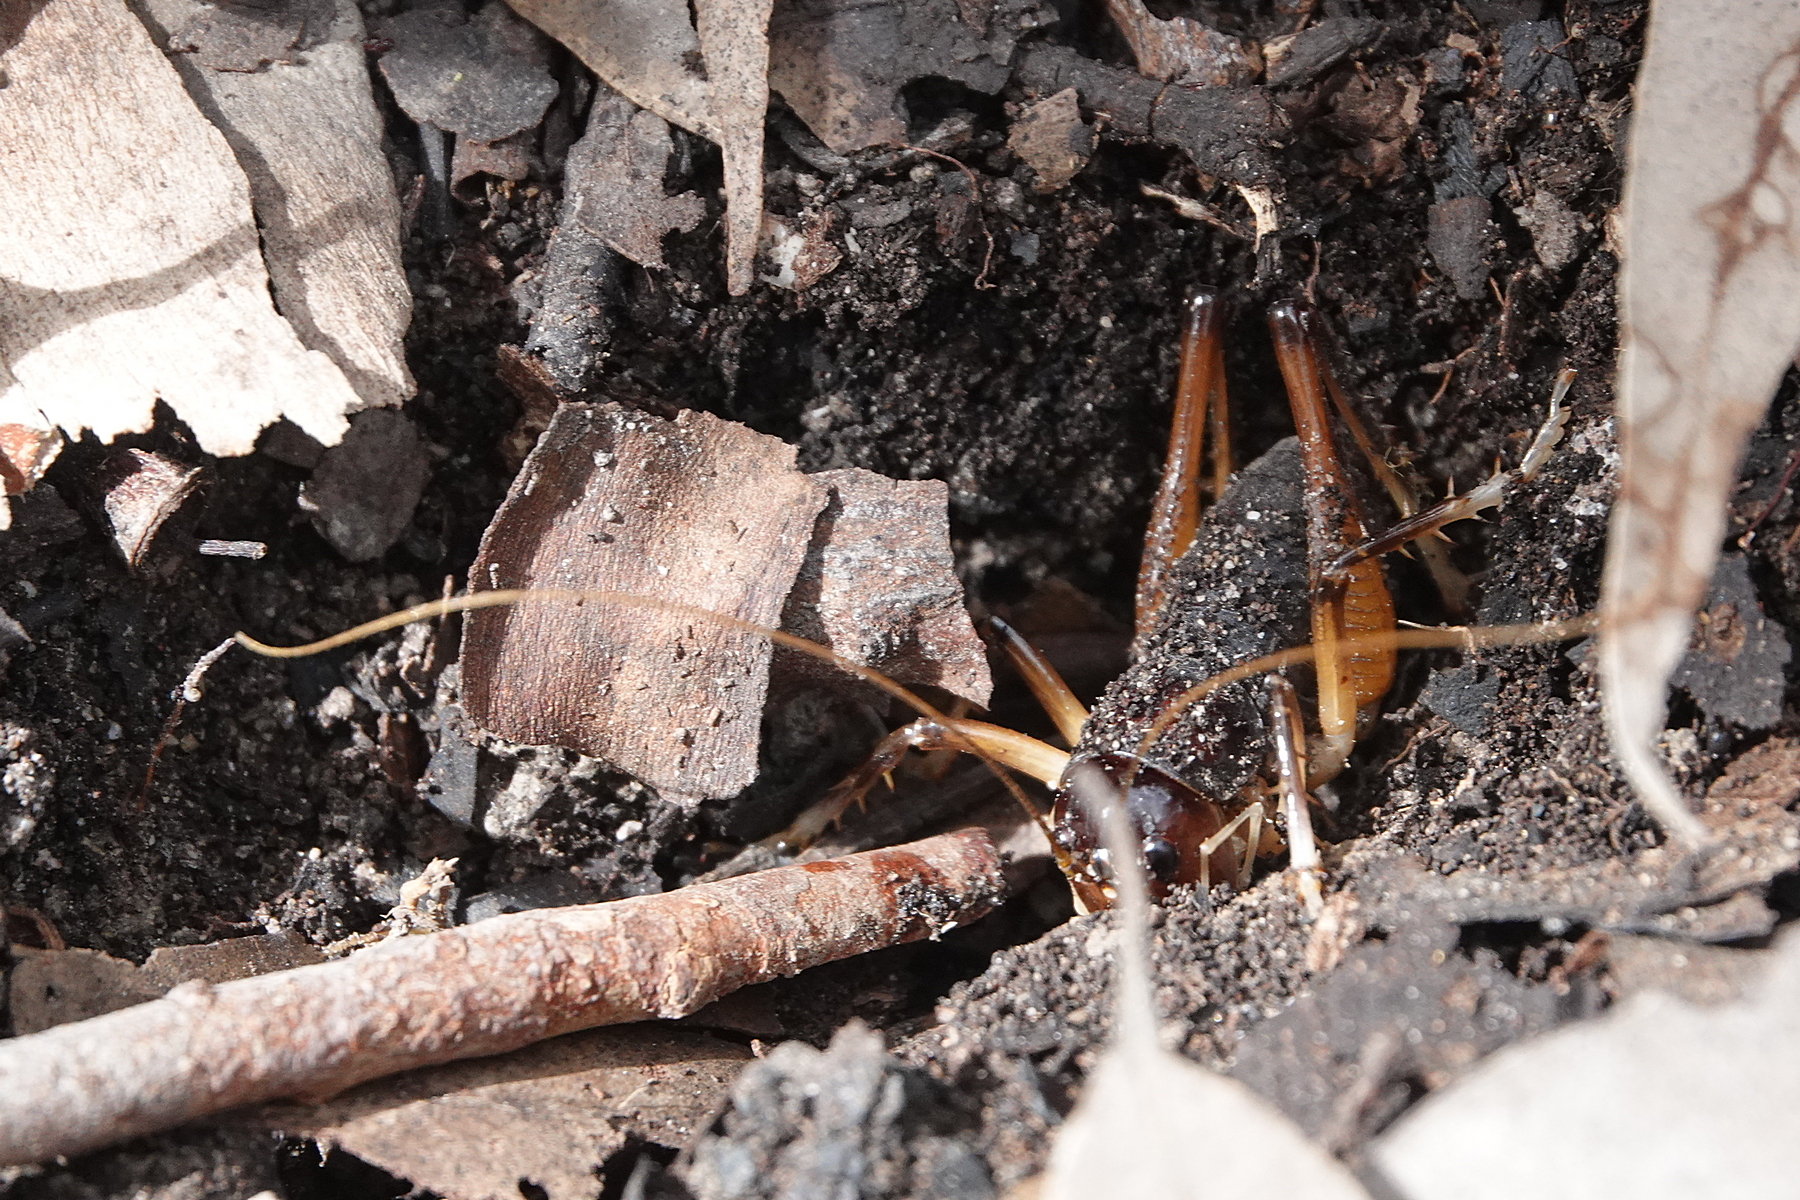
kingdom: Animalia
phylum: Arthropoda
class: Insecta
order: Orthoptera
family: Anostostomatidae
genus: Anostostoma
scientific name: Anostostoma opacum
